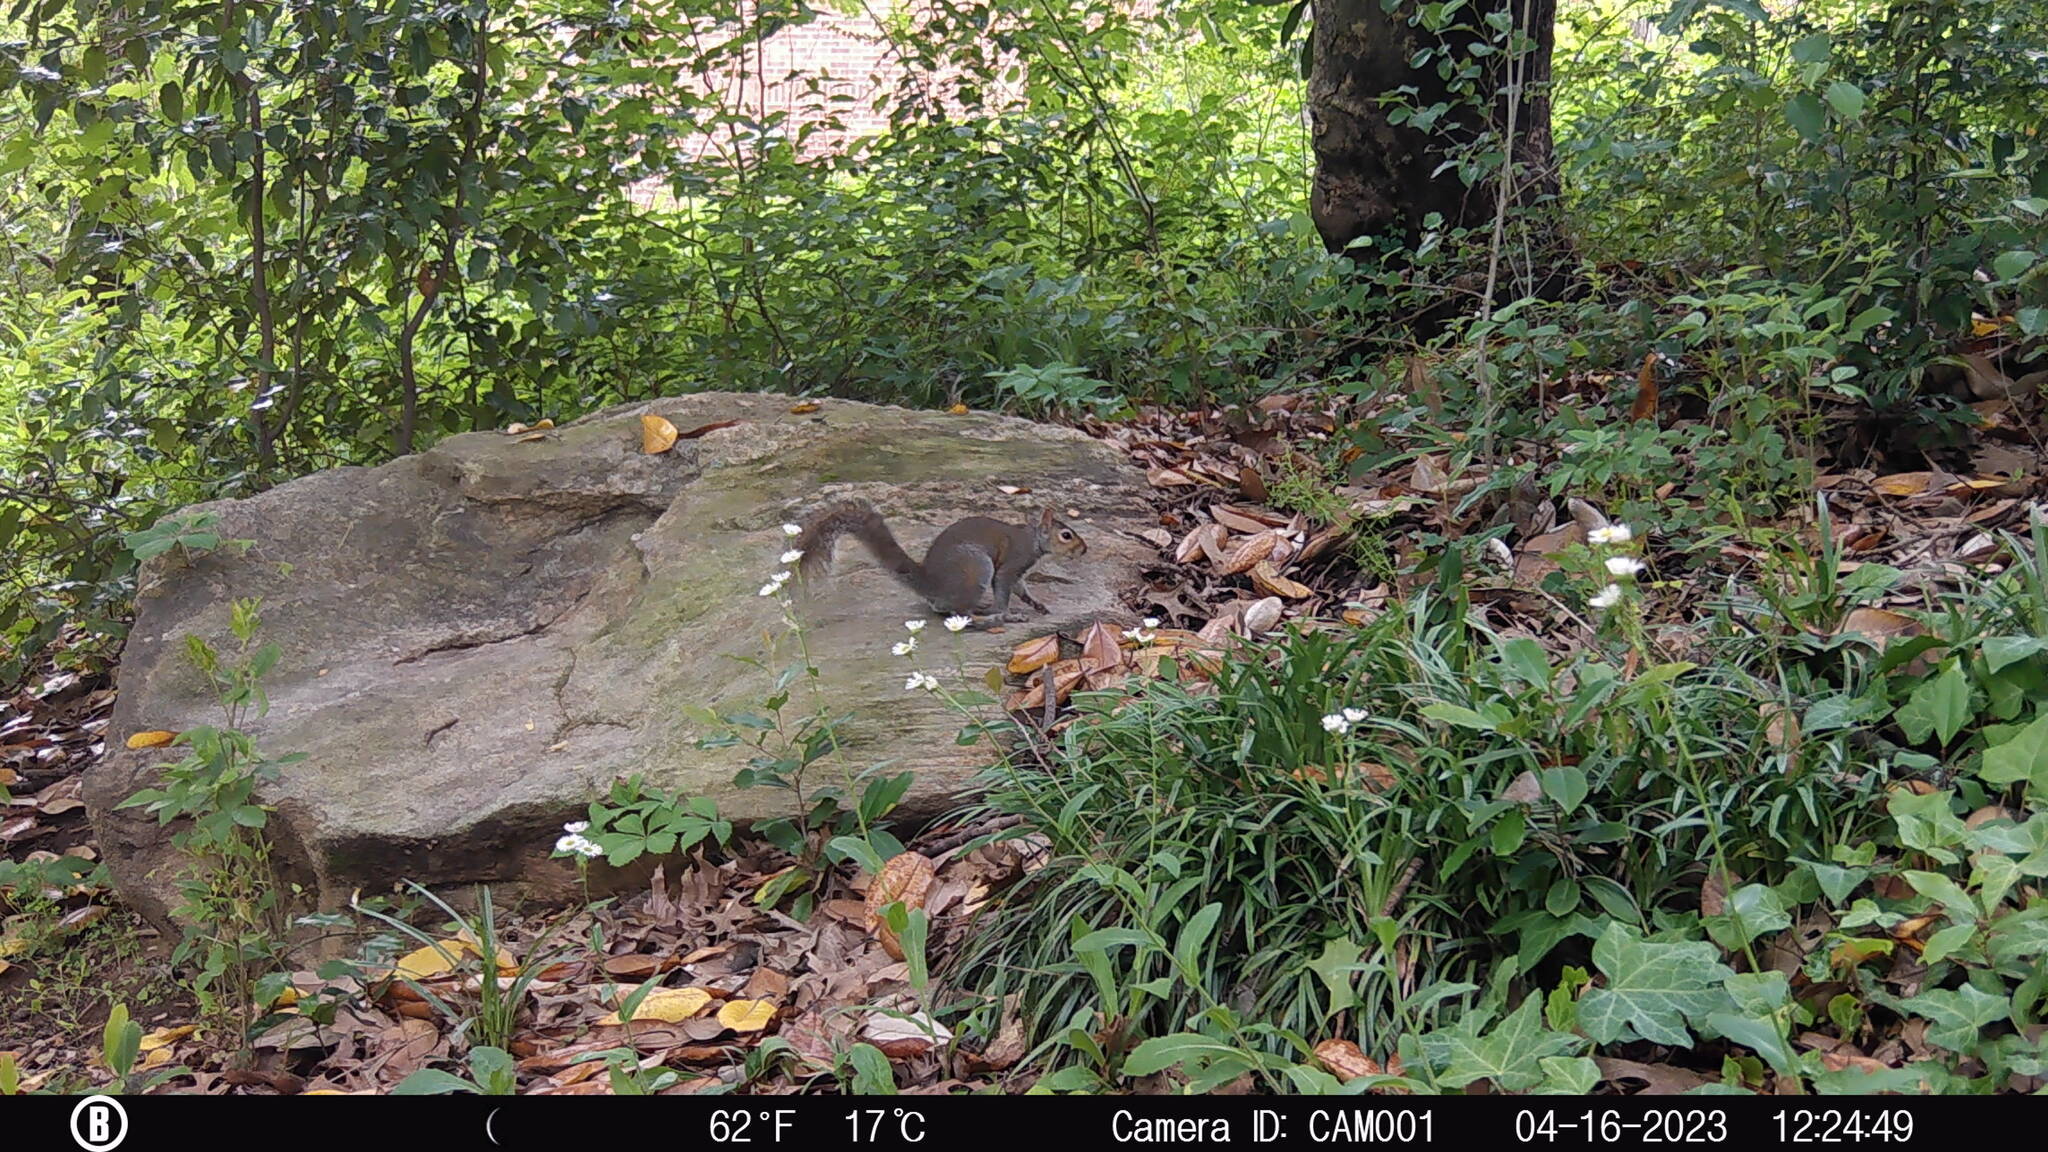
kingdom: Animalia
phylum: Chordata
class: Mammalia
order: Rodentia
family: Sciuridae
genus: Sciurus
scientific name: Sciurus carolinensis
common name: Eastern gray squirrel
